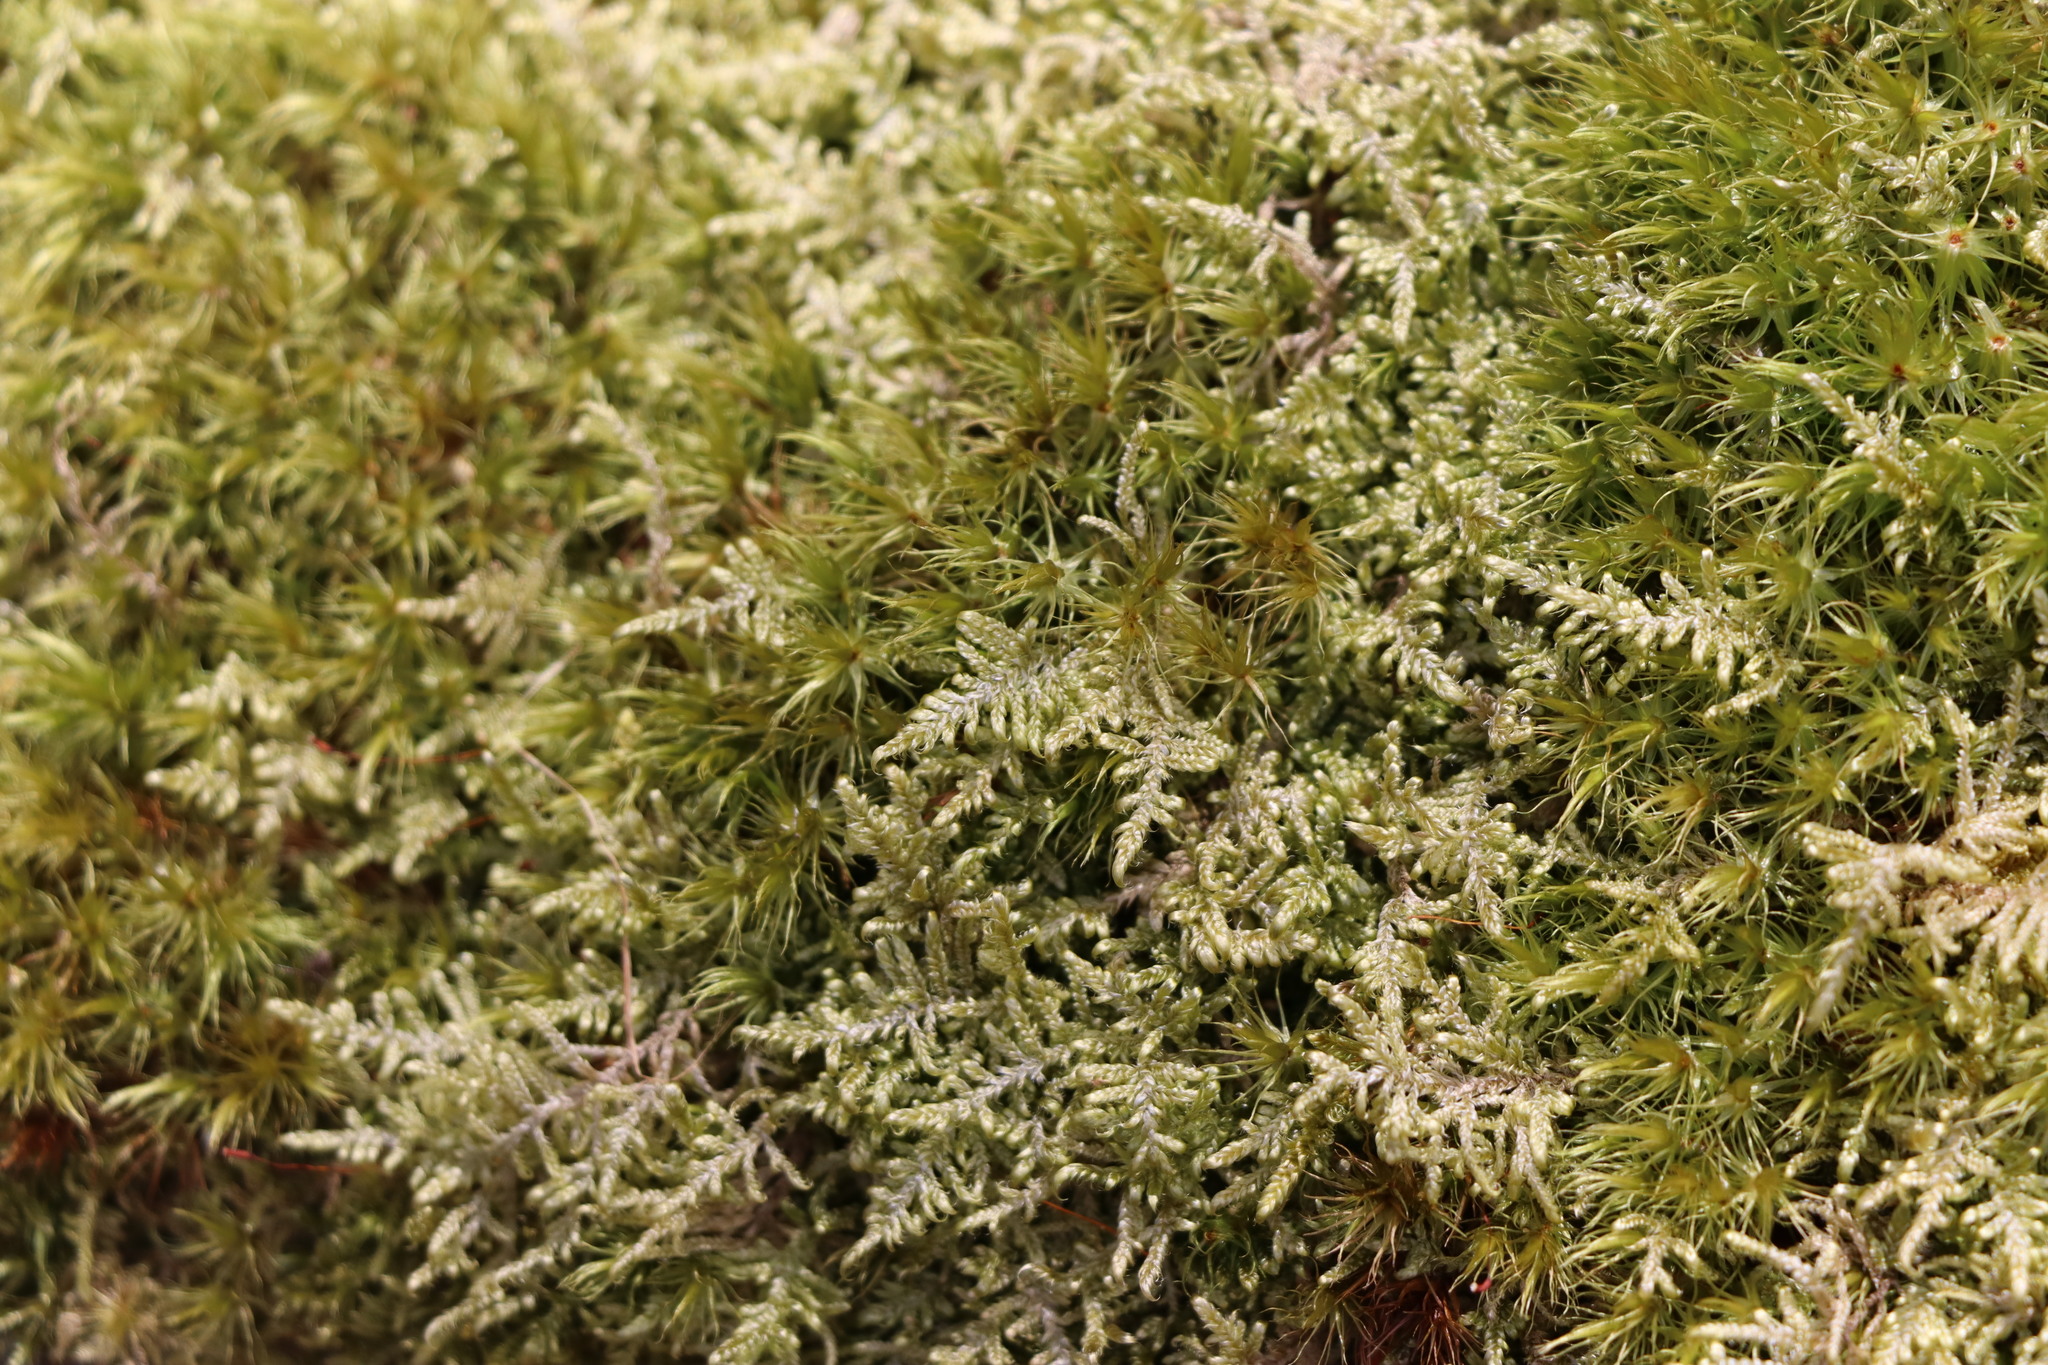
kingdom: Plantae
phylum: Bryophyta
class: Bryopsida
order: Hypnales
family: Hypnaceae
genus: Hypnum
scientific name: Hypnum jutlandicum
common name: Heath plait-moss
